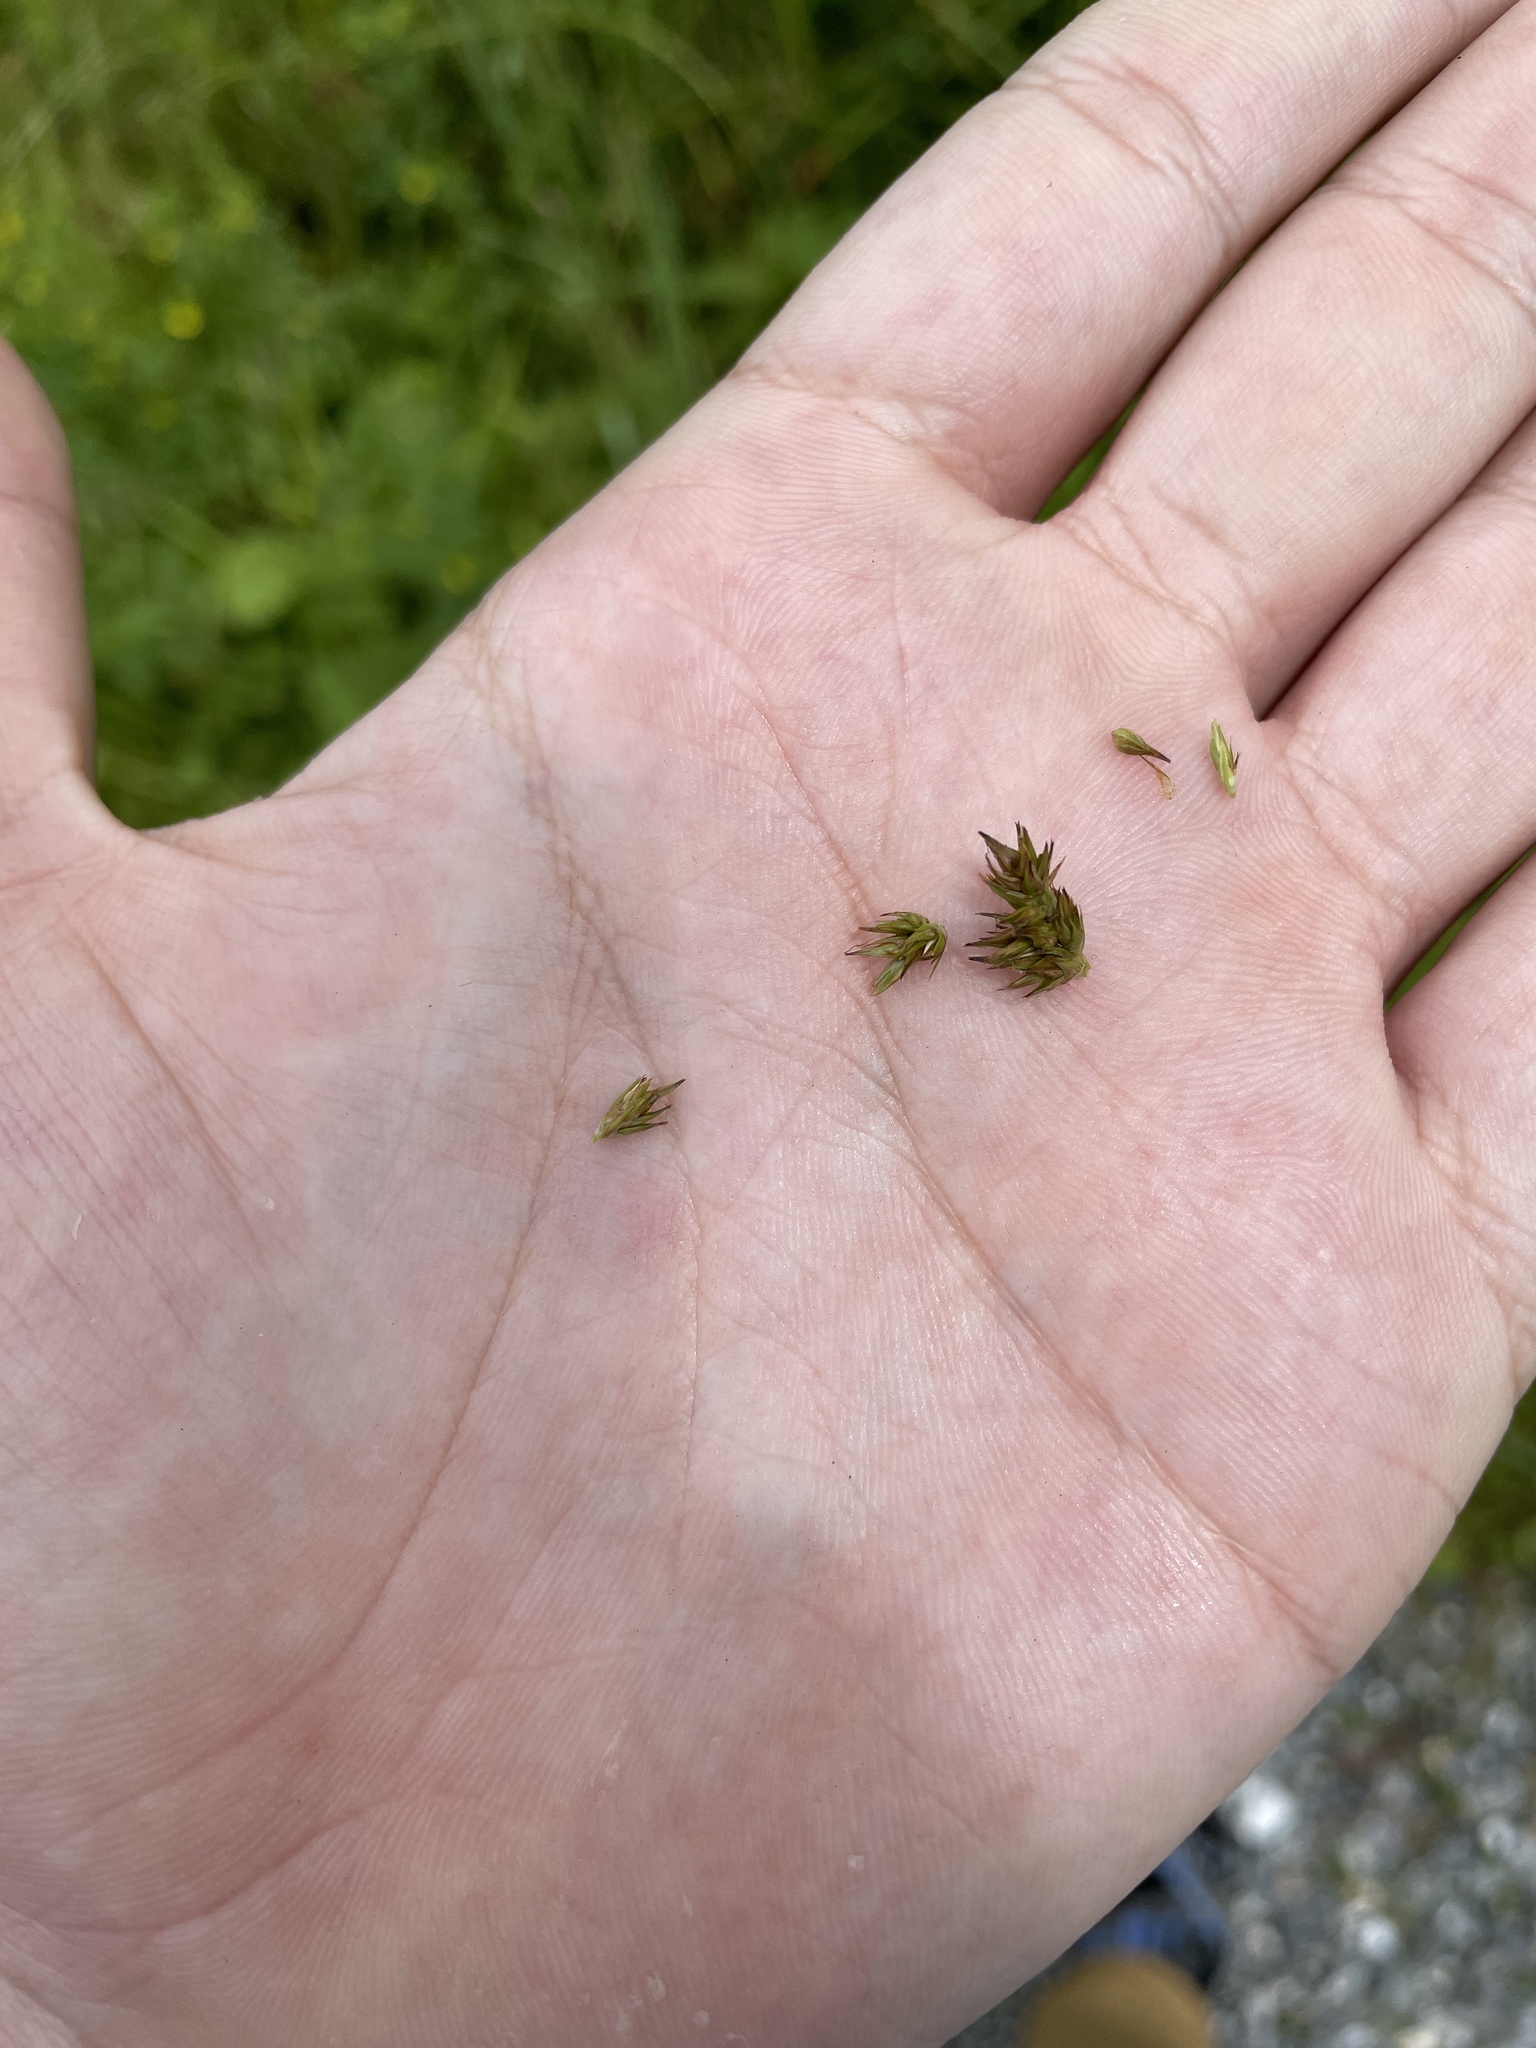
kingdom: Plantae
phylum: Tracheophyta
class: Liliopsida
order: Poales
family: Cyperaceae
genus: Carex
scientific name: Carex stipata
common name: Awl-fruited sedge
